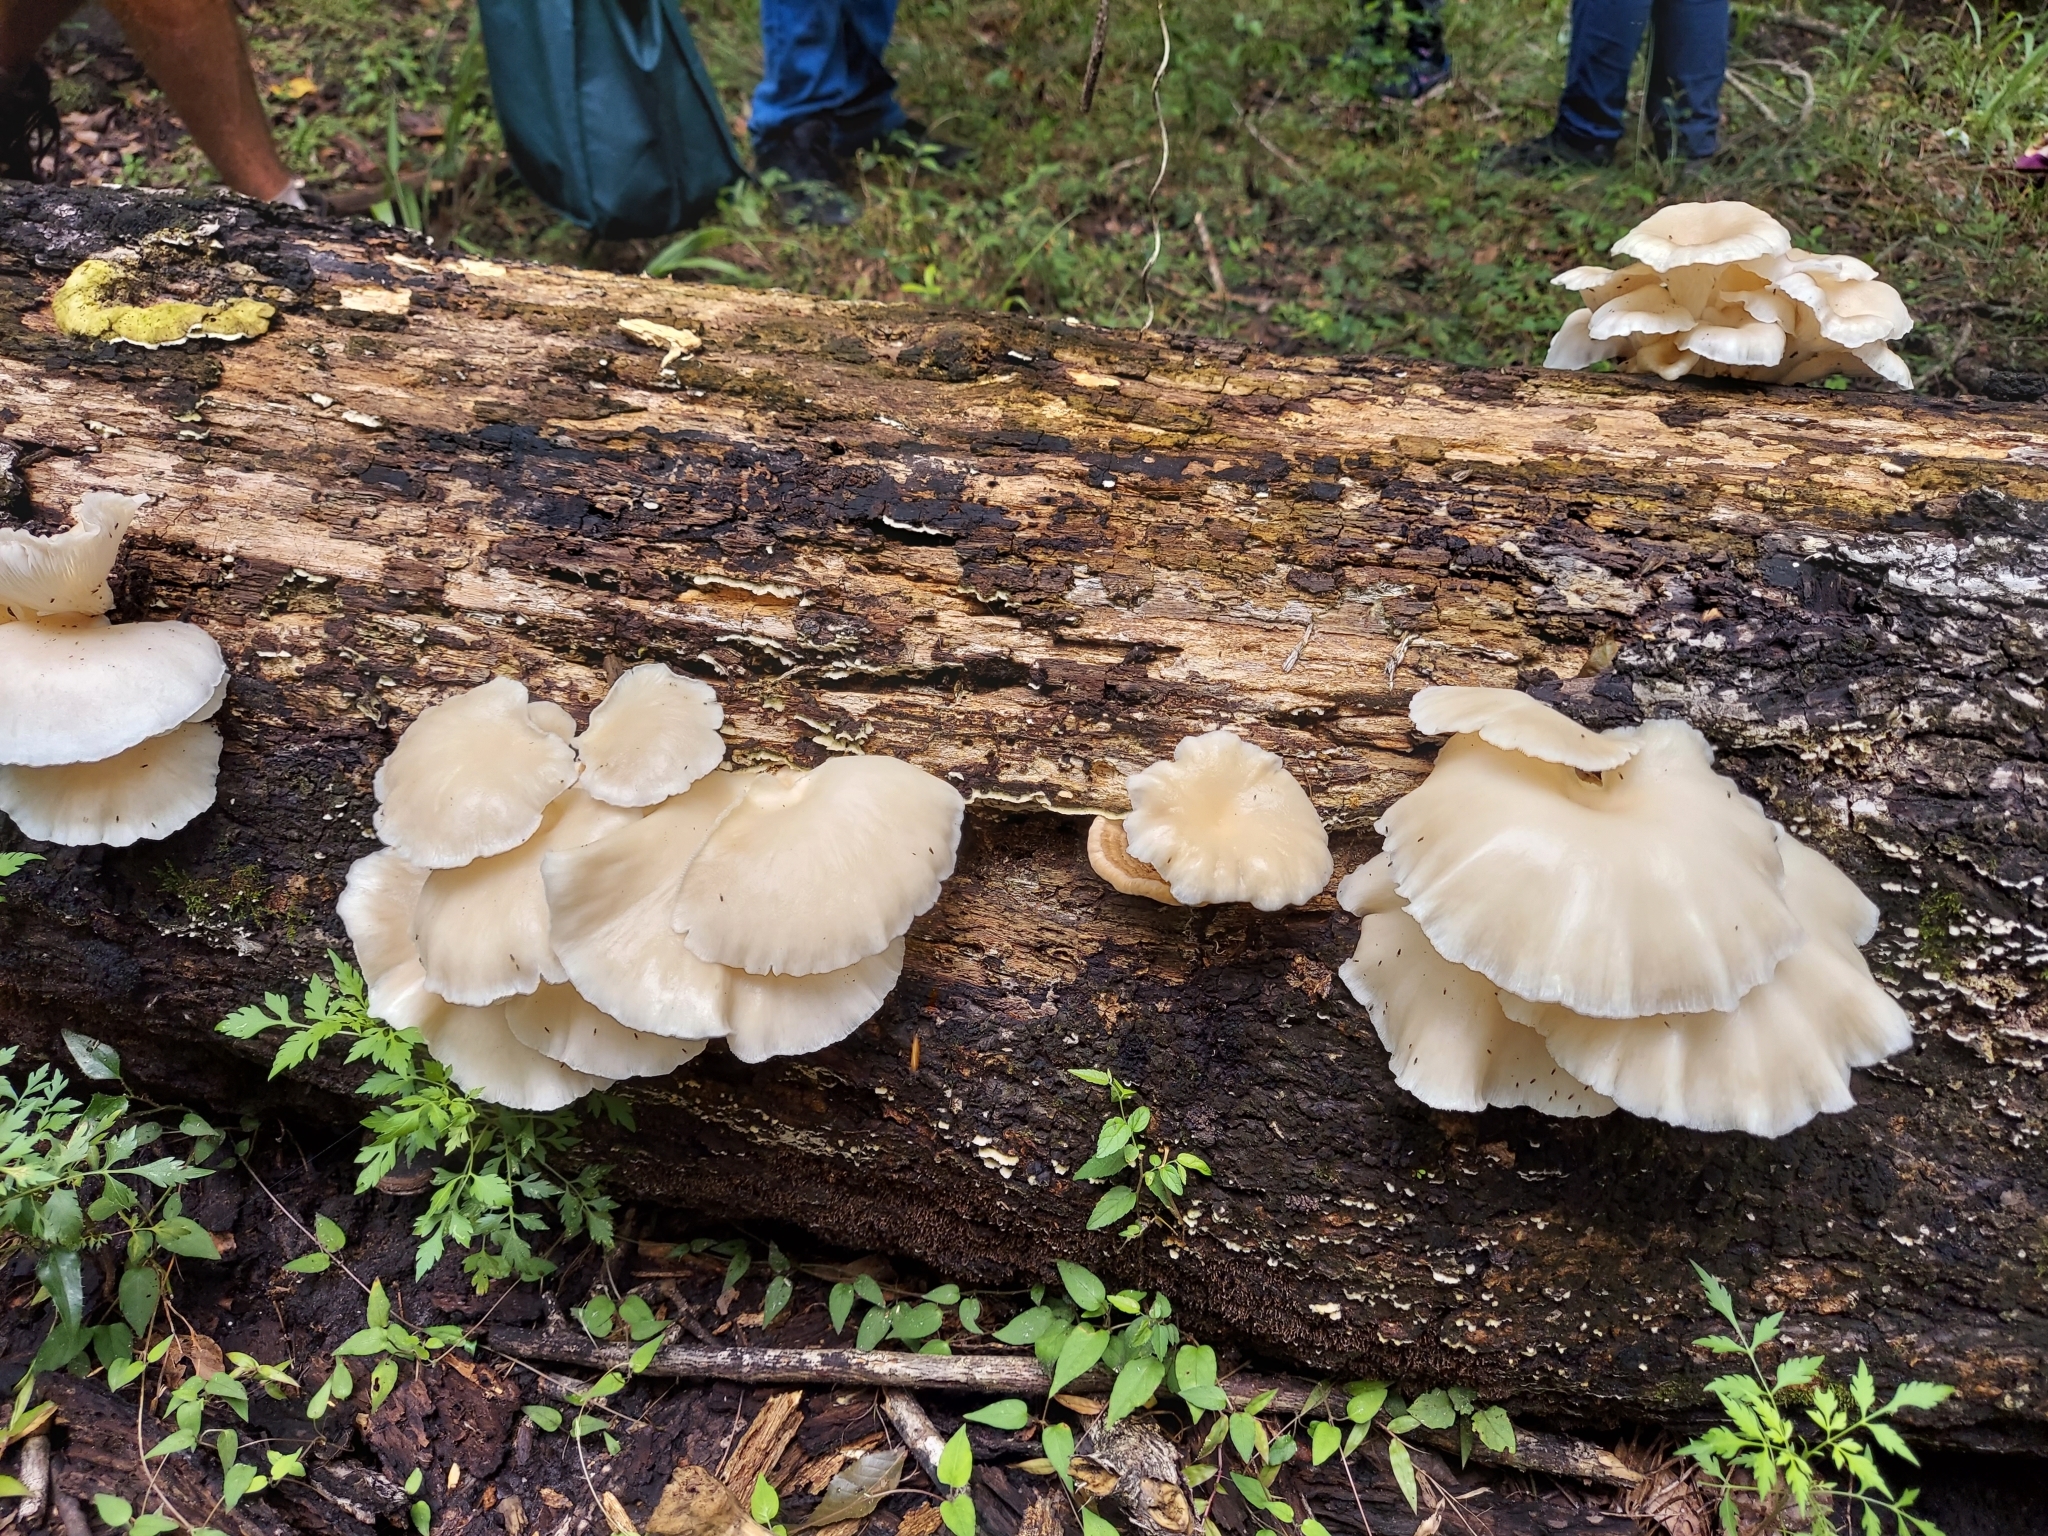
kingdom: Fungi
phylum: Basidiomycota
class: Agaricomycetes
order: Agaricales
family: Pleurotaceae
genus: Pleurotus
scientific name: Pleurotus pulmonarius
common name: Pale oyster
